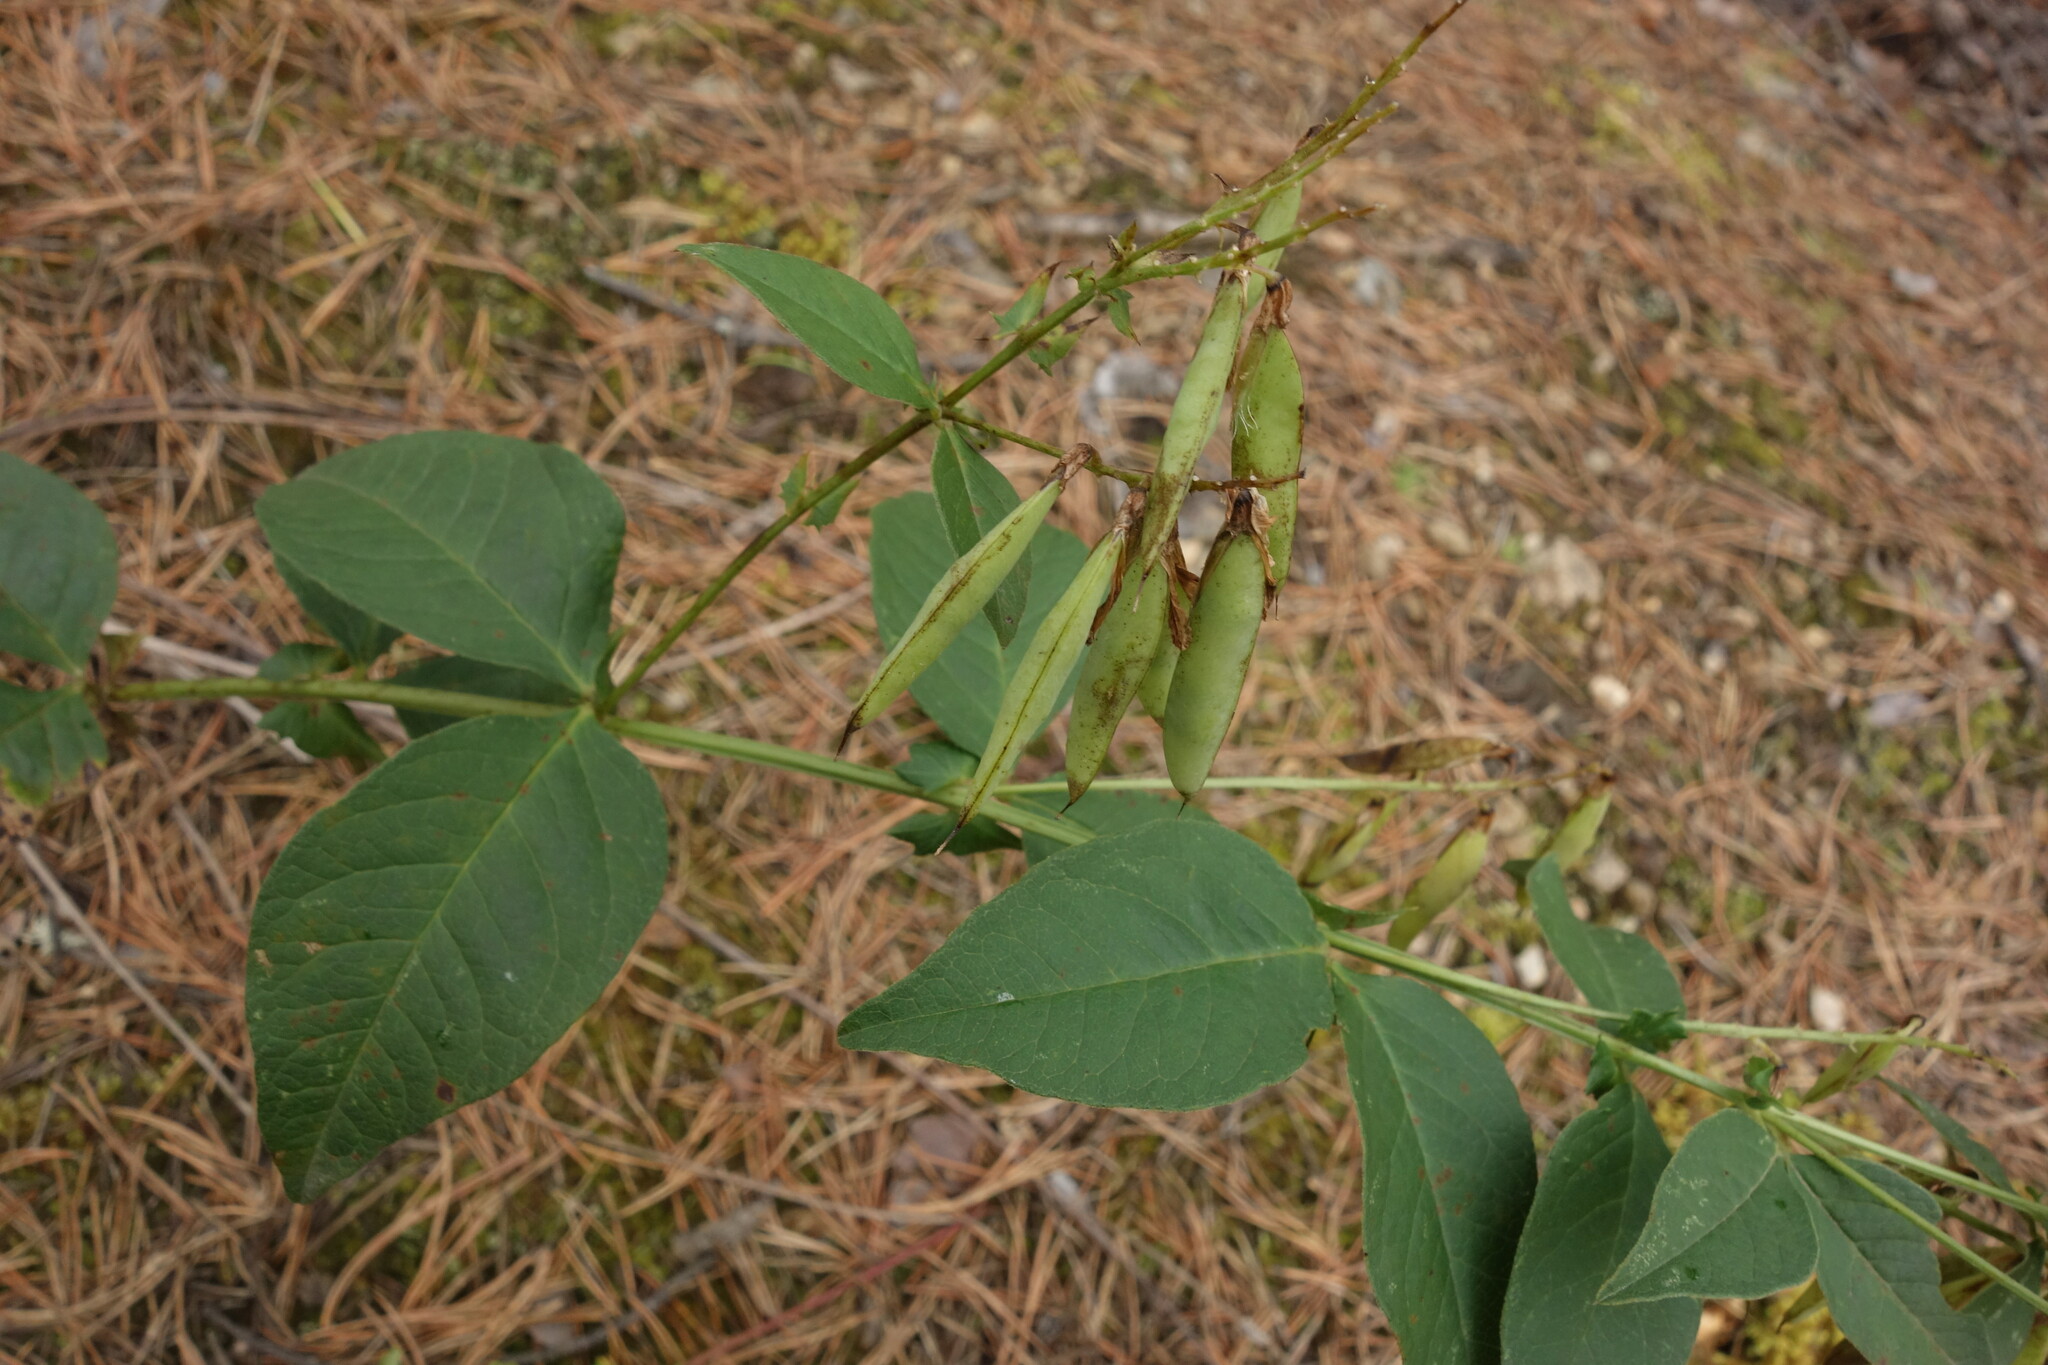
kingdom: Plantae
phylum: Tracheophyta
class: Magnoliopsida
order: Fabales
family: Fabaceae
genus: Vicia
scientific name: Vicia unijuga
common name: Two-leaf vetch
